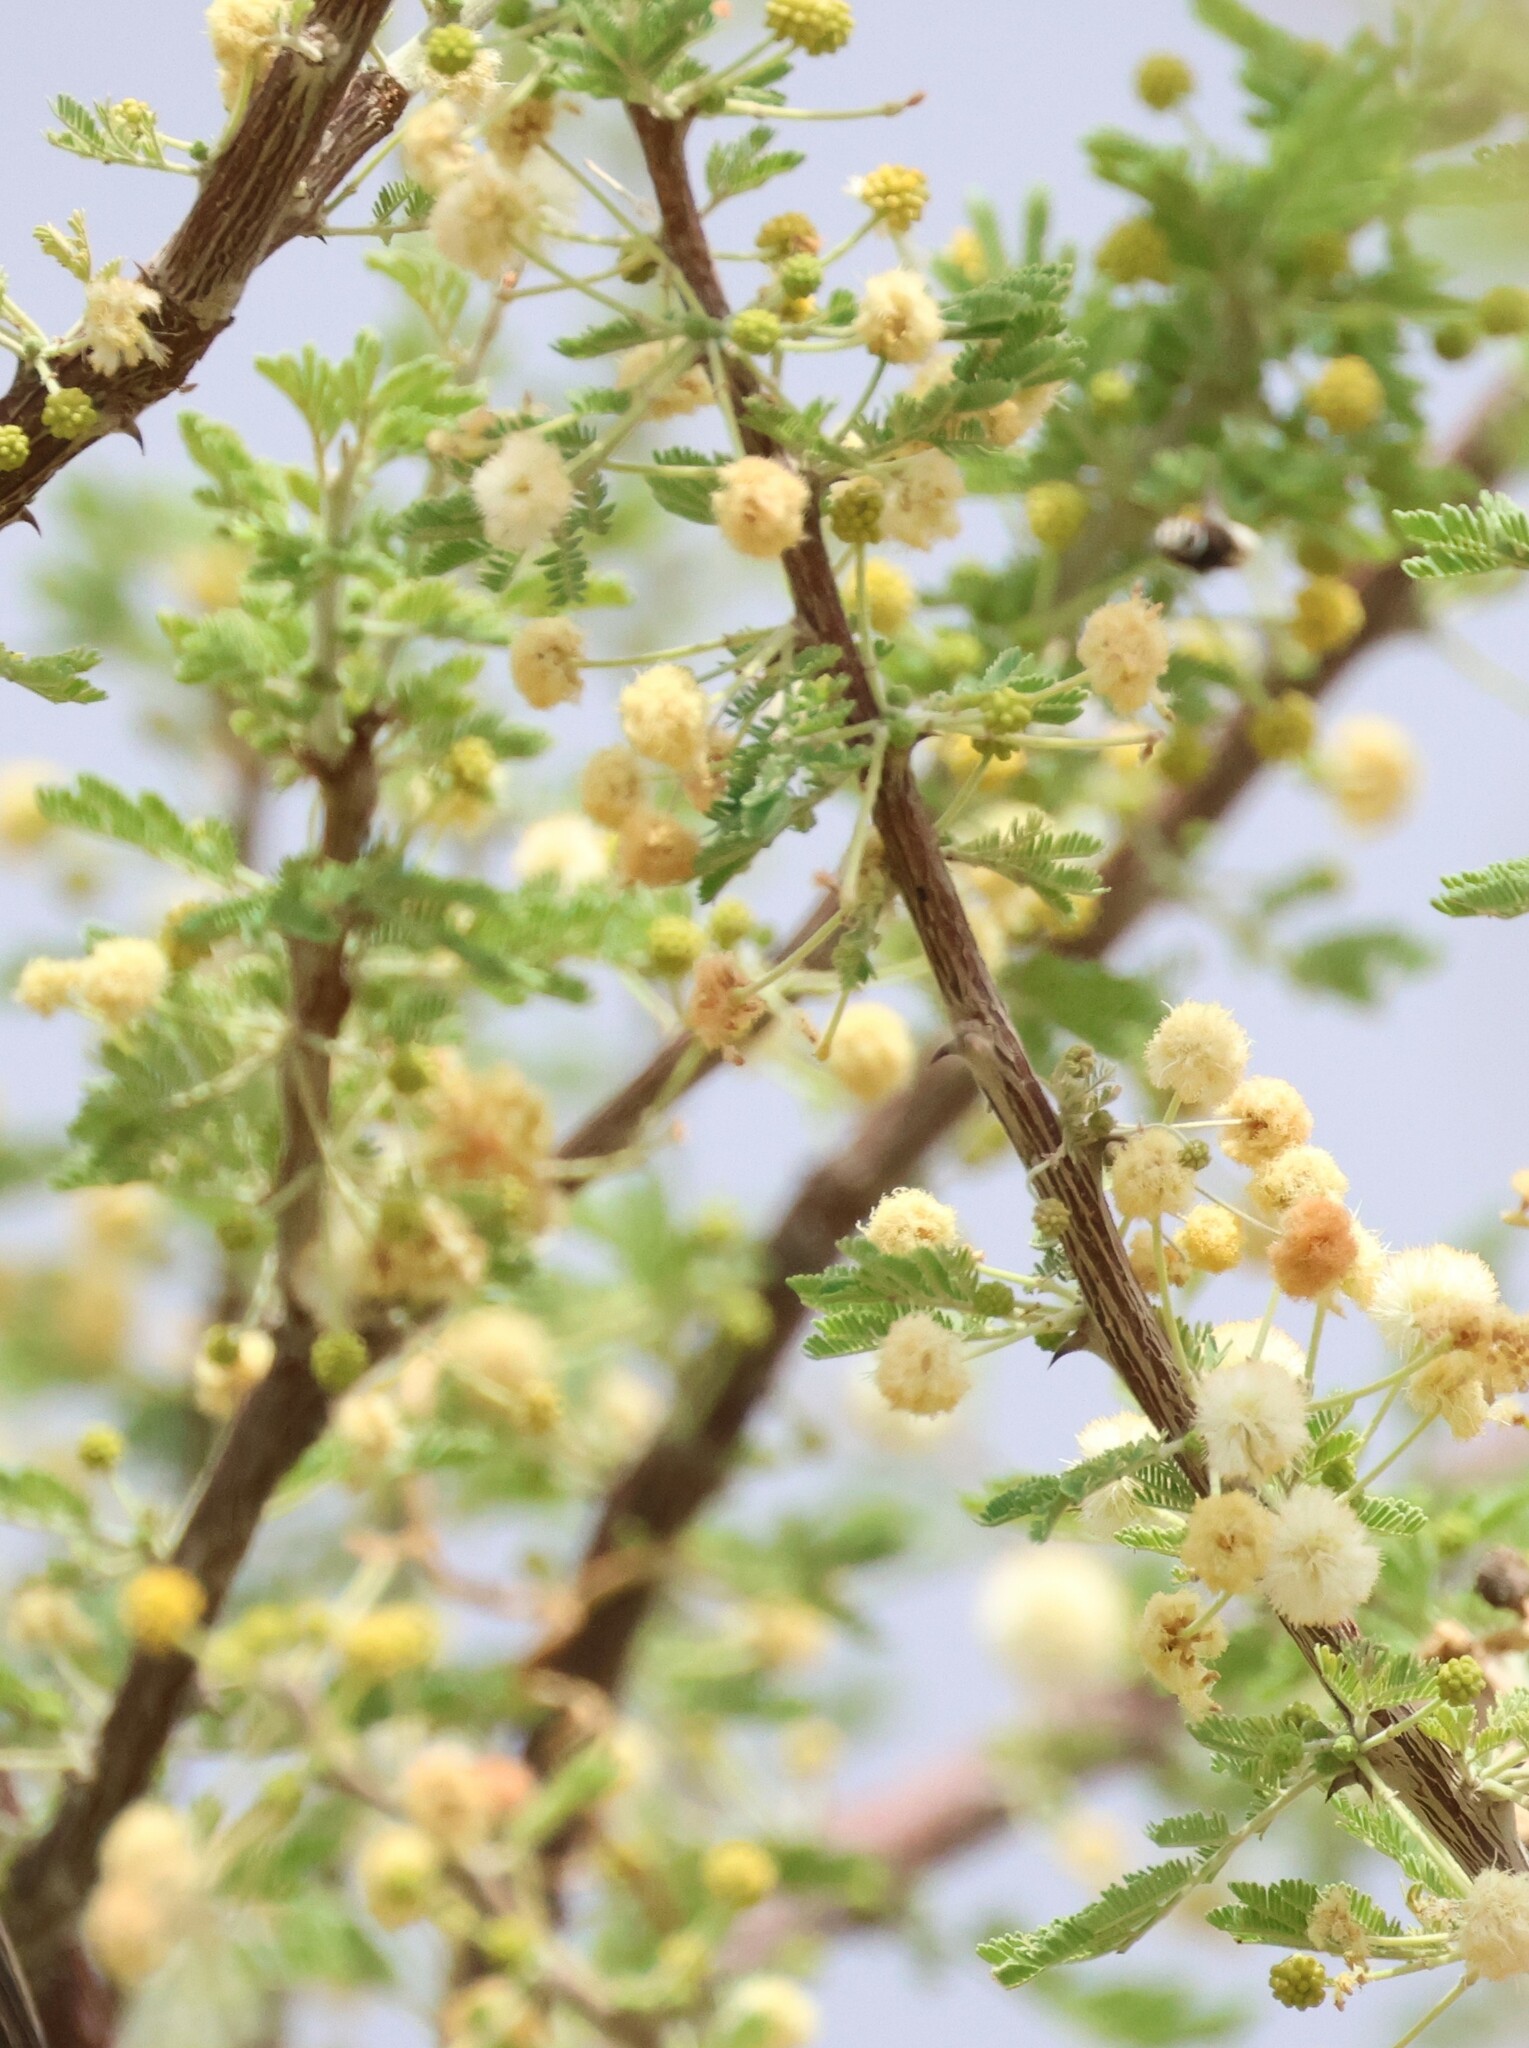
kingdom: Plantae
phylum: Tracheophyta
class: Magnoliopsida
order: Fabales
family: Fabaceae
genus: Vachellia
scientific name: Vachellia hebeclada
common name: Candle thorn
